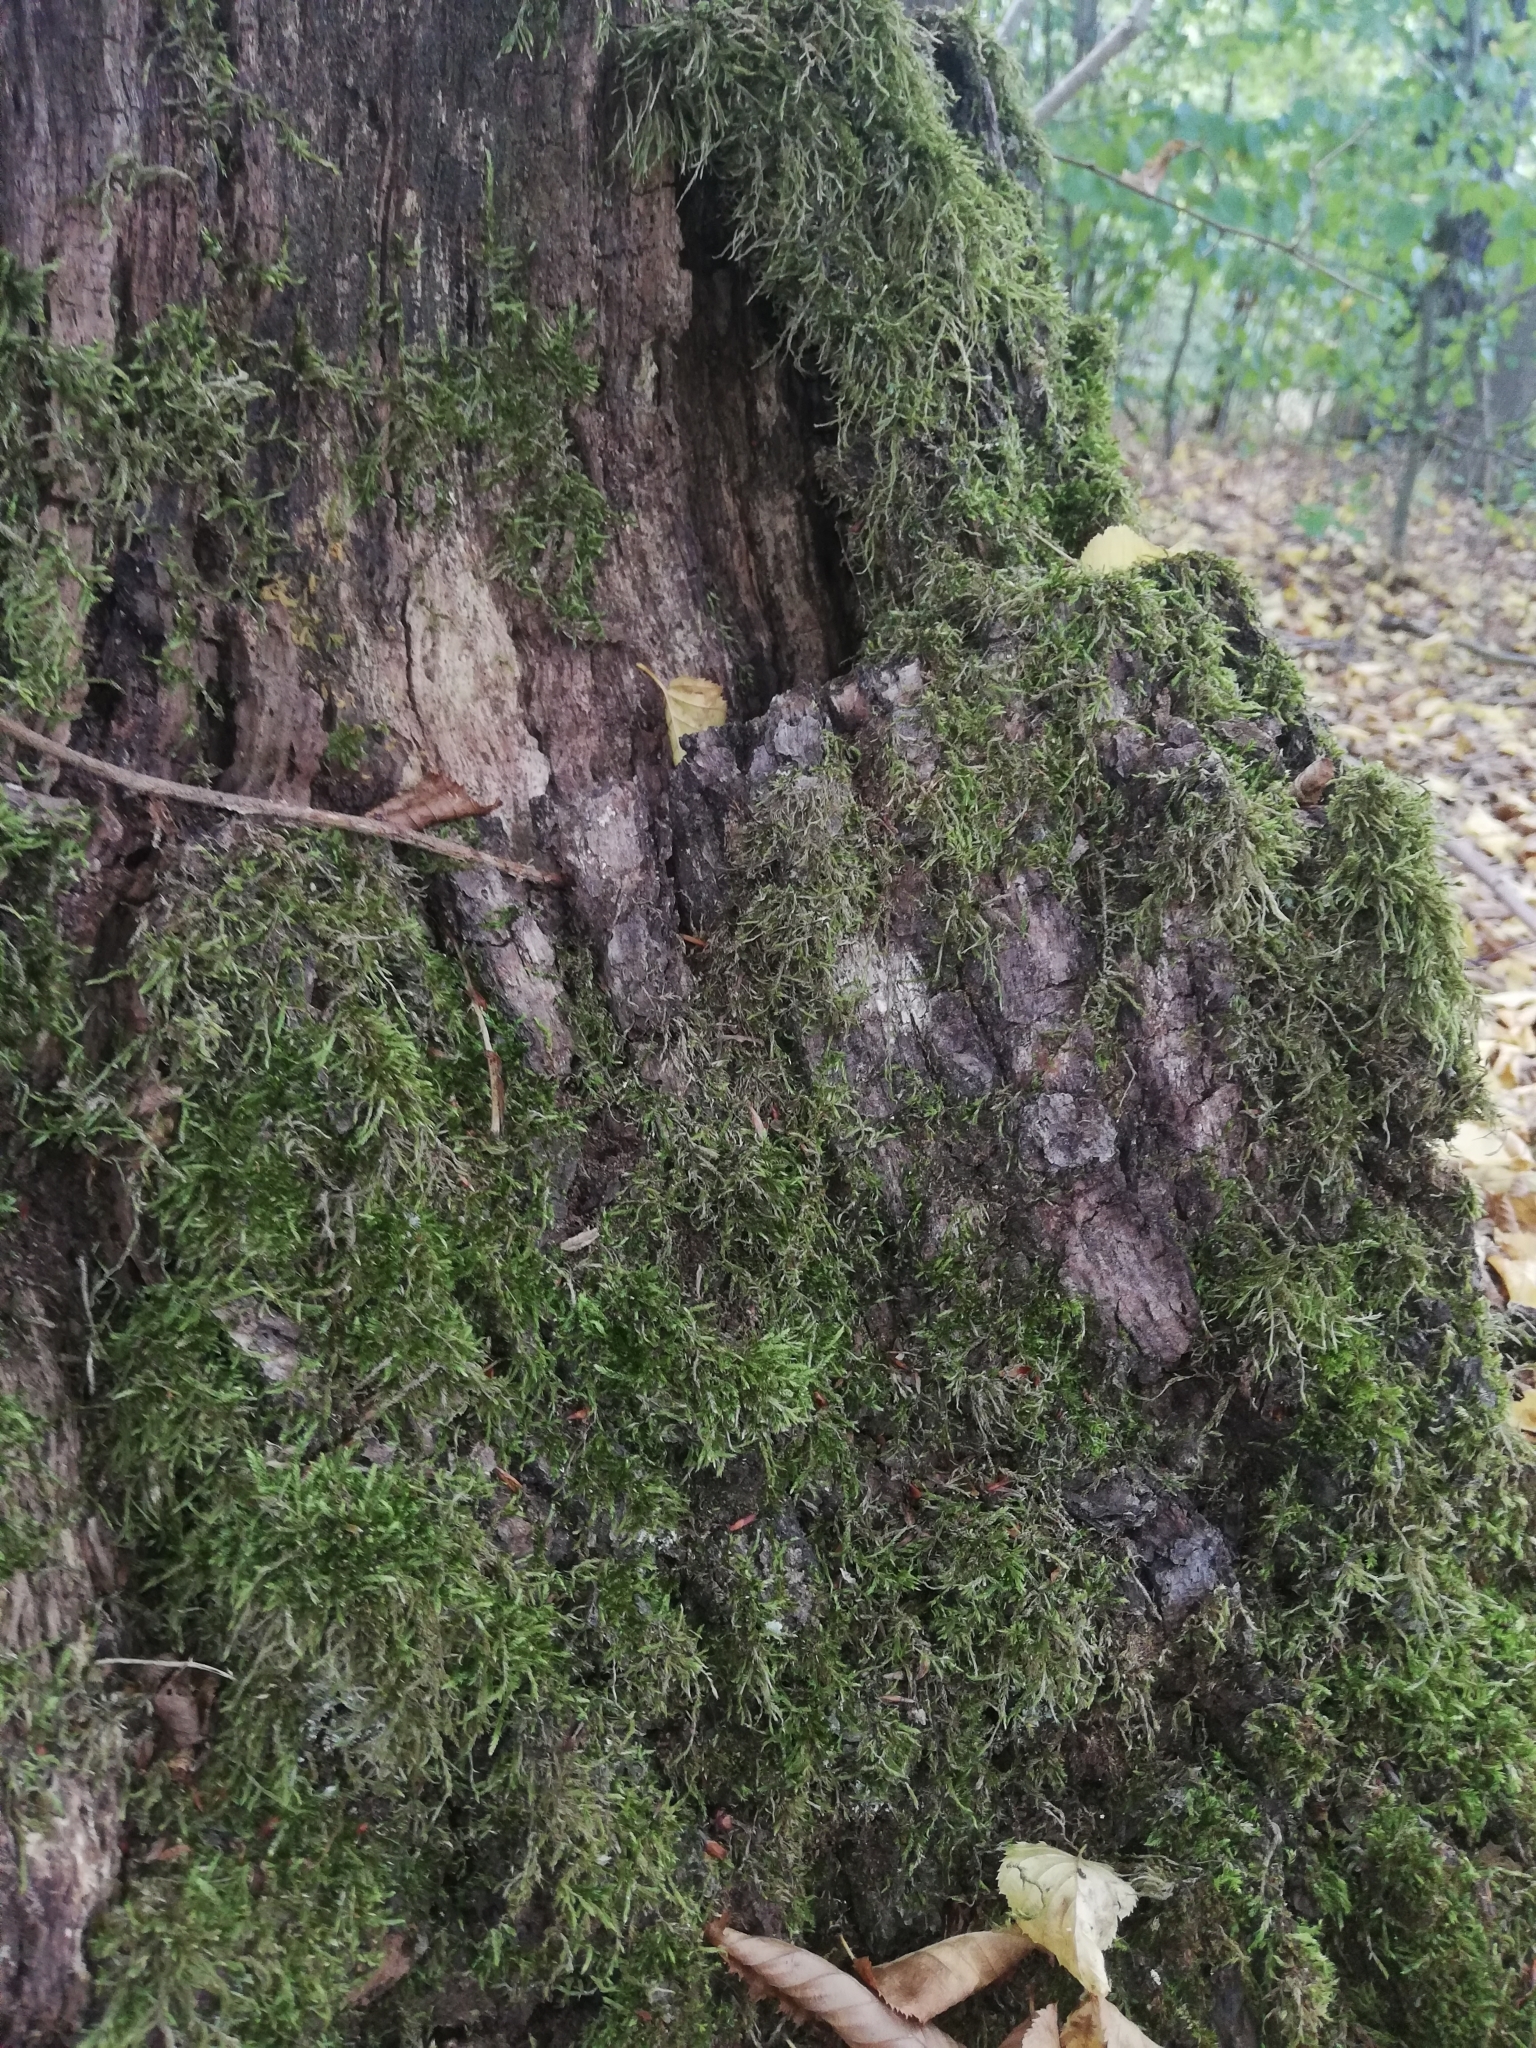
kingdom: Fungi
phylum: Basidiomycota
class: Agaricomycetes
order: Polyporales
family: Laetiporaceae
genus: Laetiporus
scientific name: Laetiporus sulphureus
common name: Chicken of the woods
